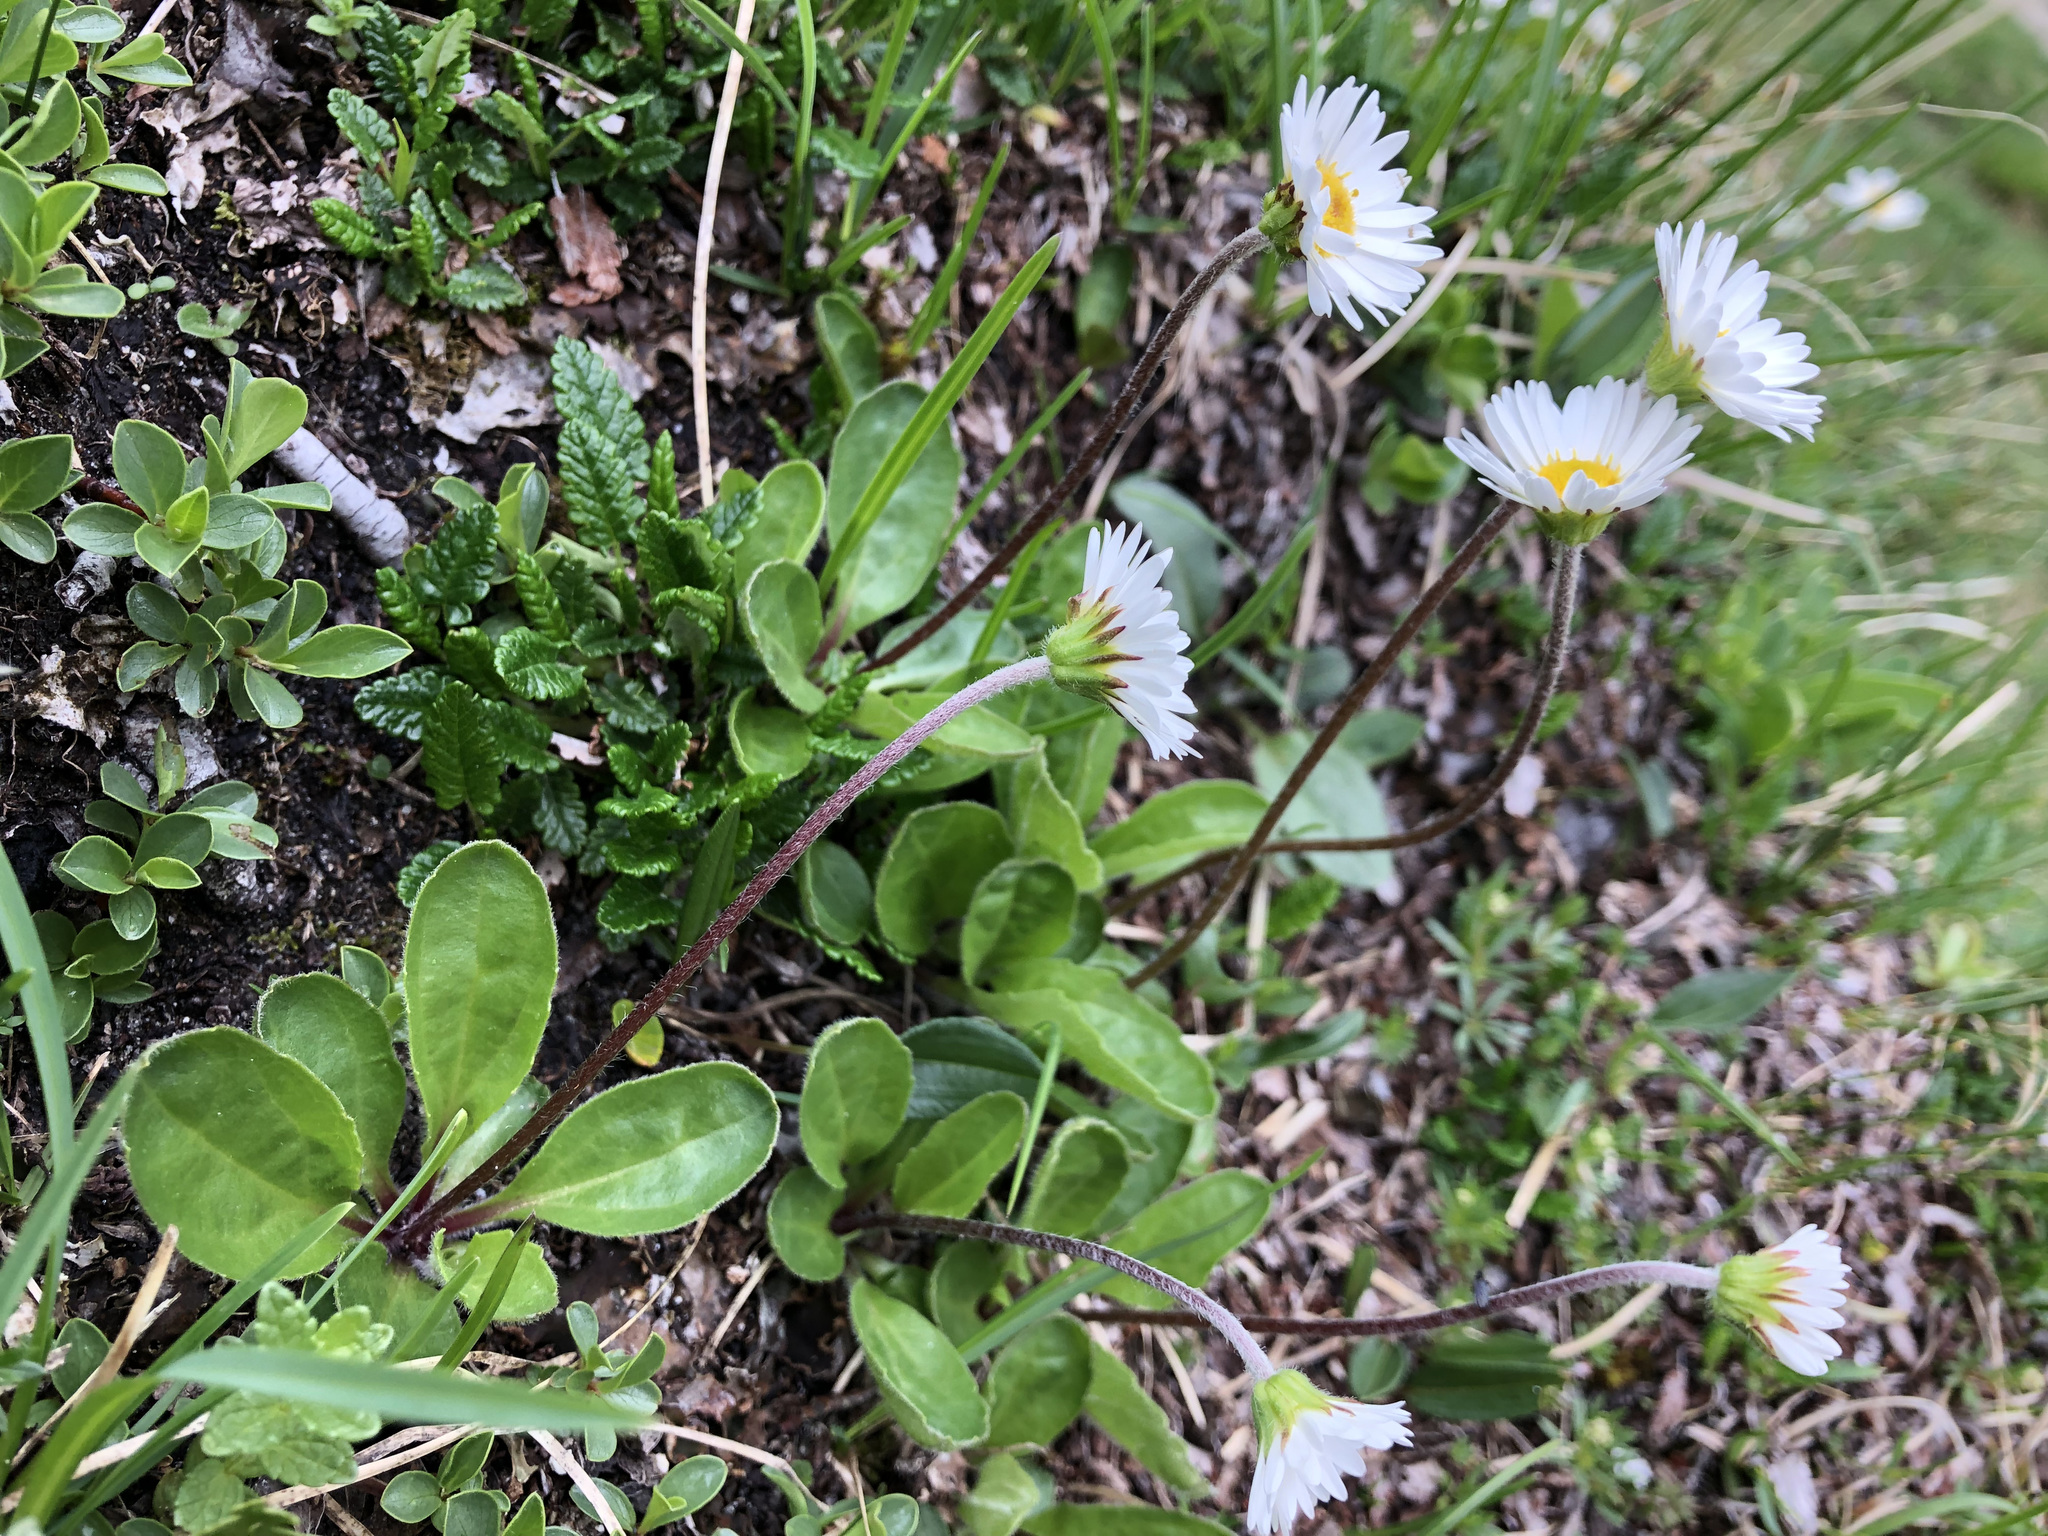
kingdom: Plantae
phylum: Tracheophyta
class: Magnoliopsida
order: Asterales
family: Asteraceae
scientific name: Asteraceae
